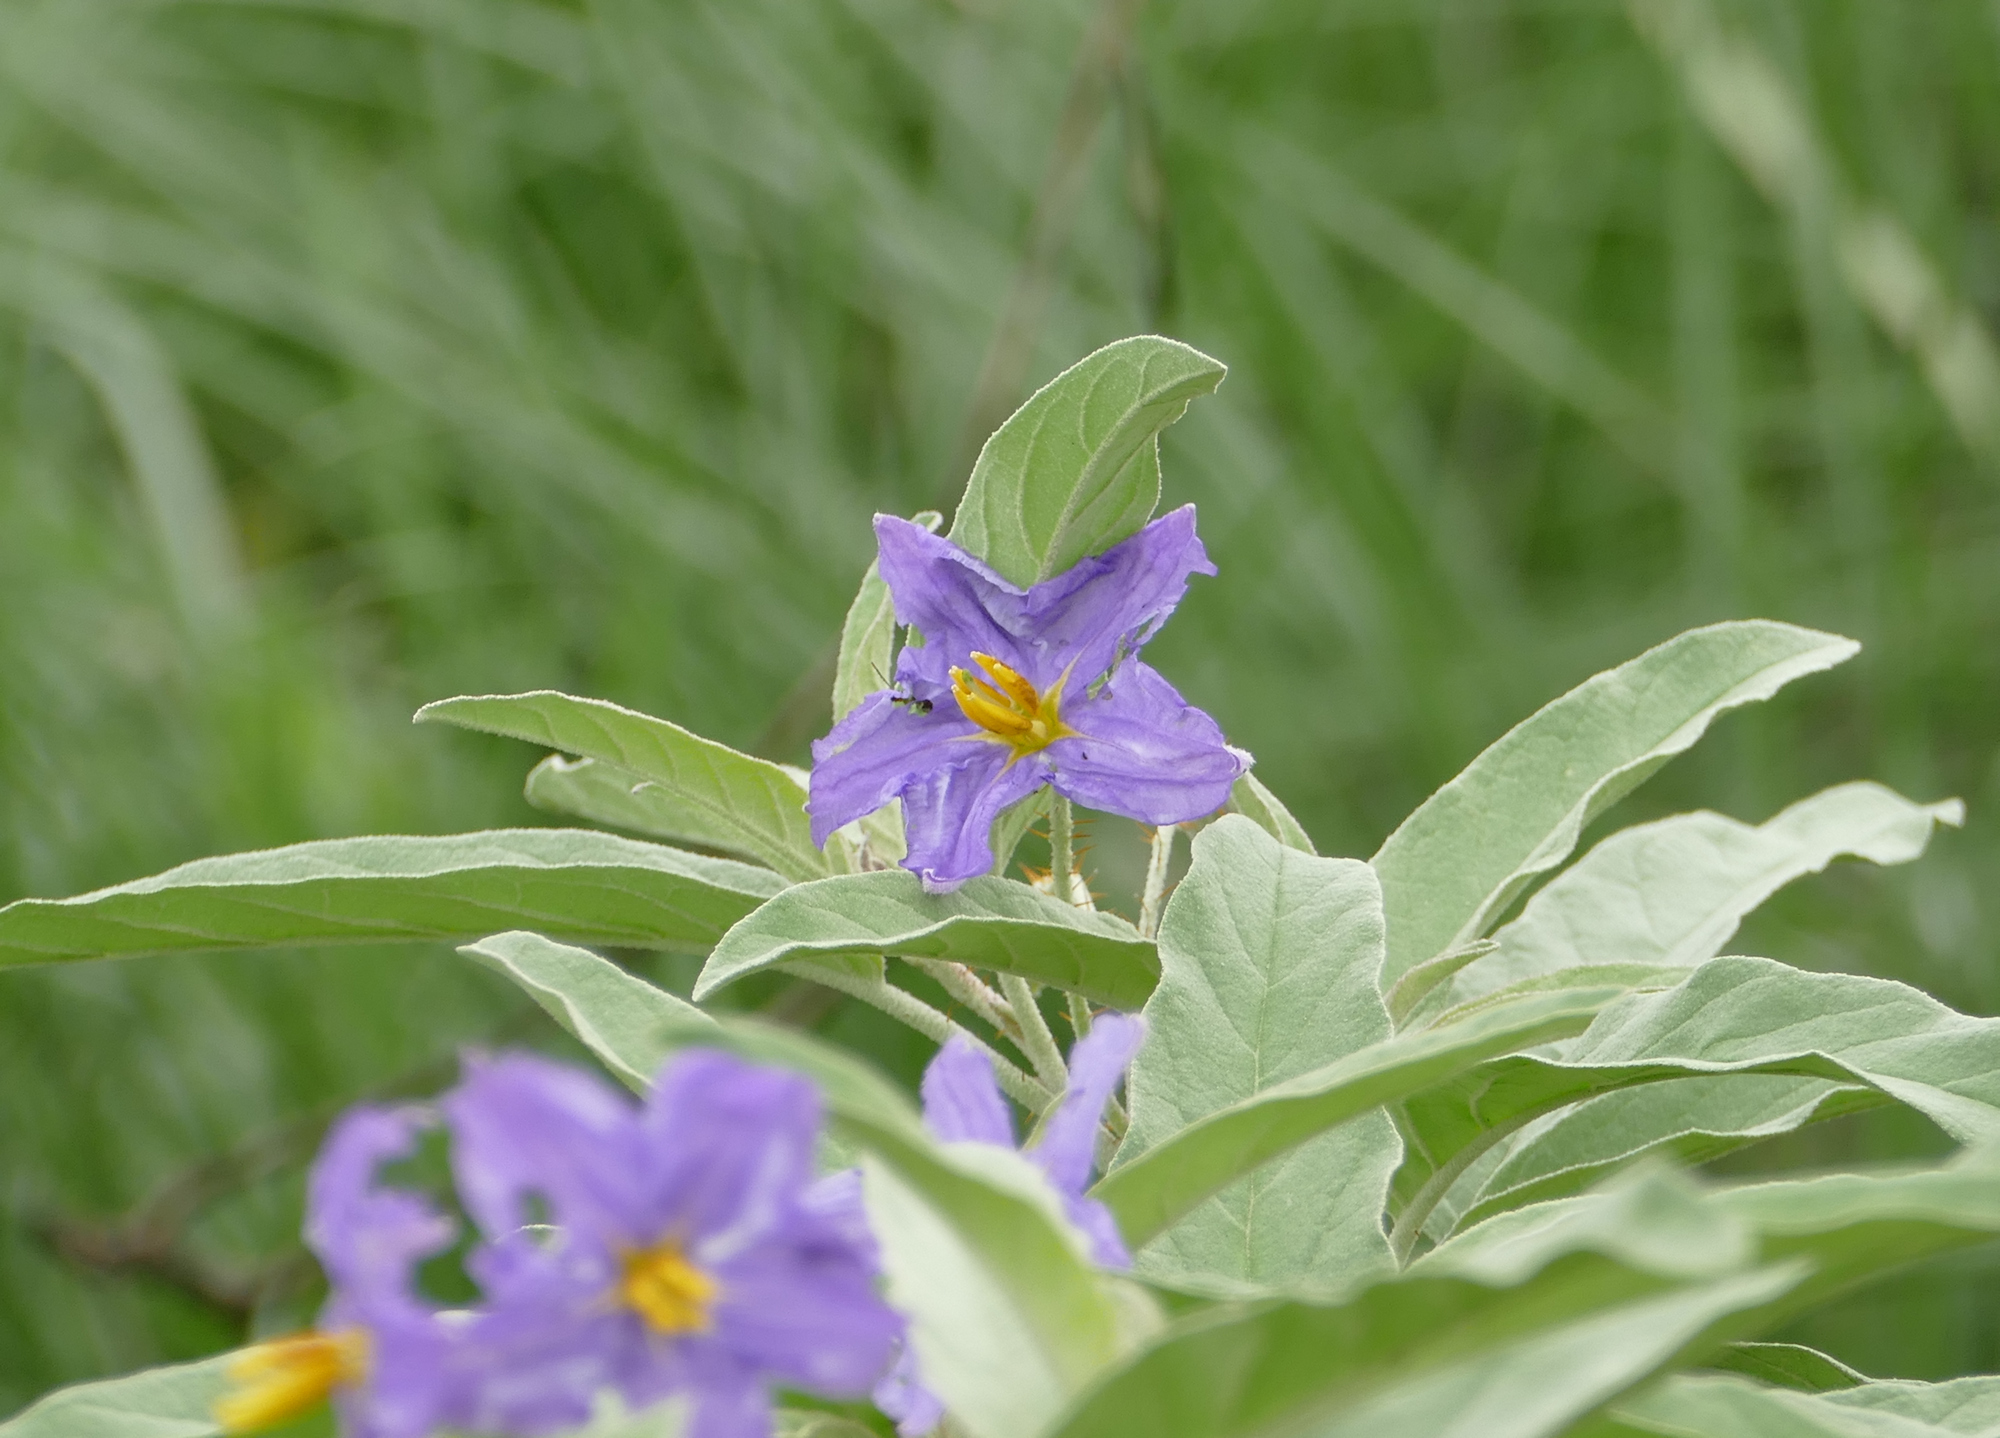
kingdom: Plantae
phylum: Tracheophyta
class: Magnoliopsida
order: Solanales
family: Solanaceae
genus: Solanum
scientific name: Solanum elaeagnifolium
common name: Silverleaf nightshade
